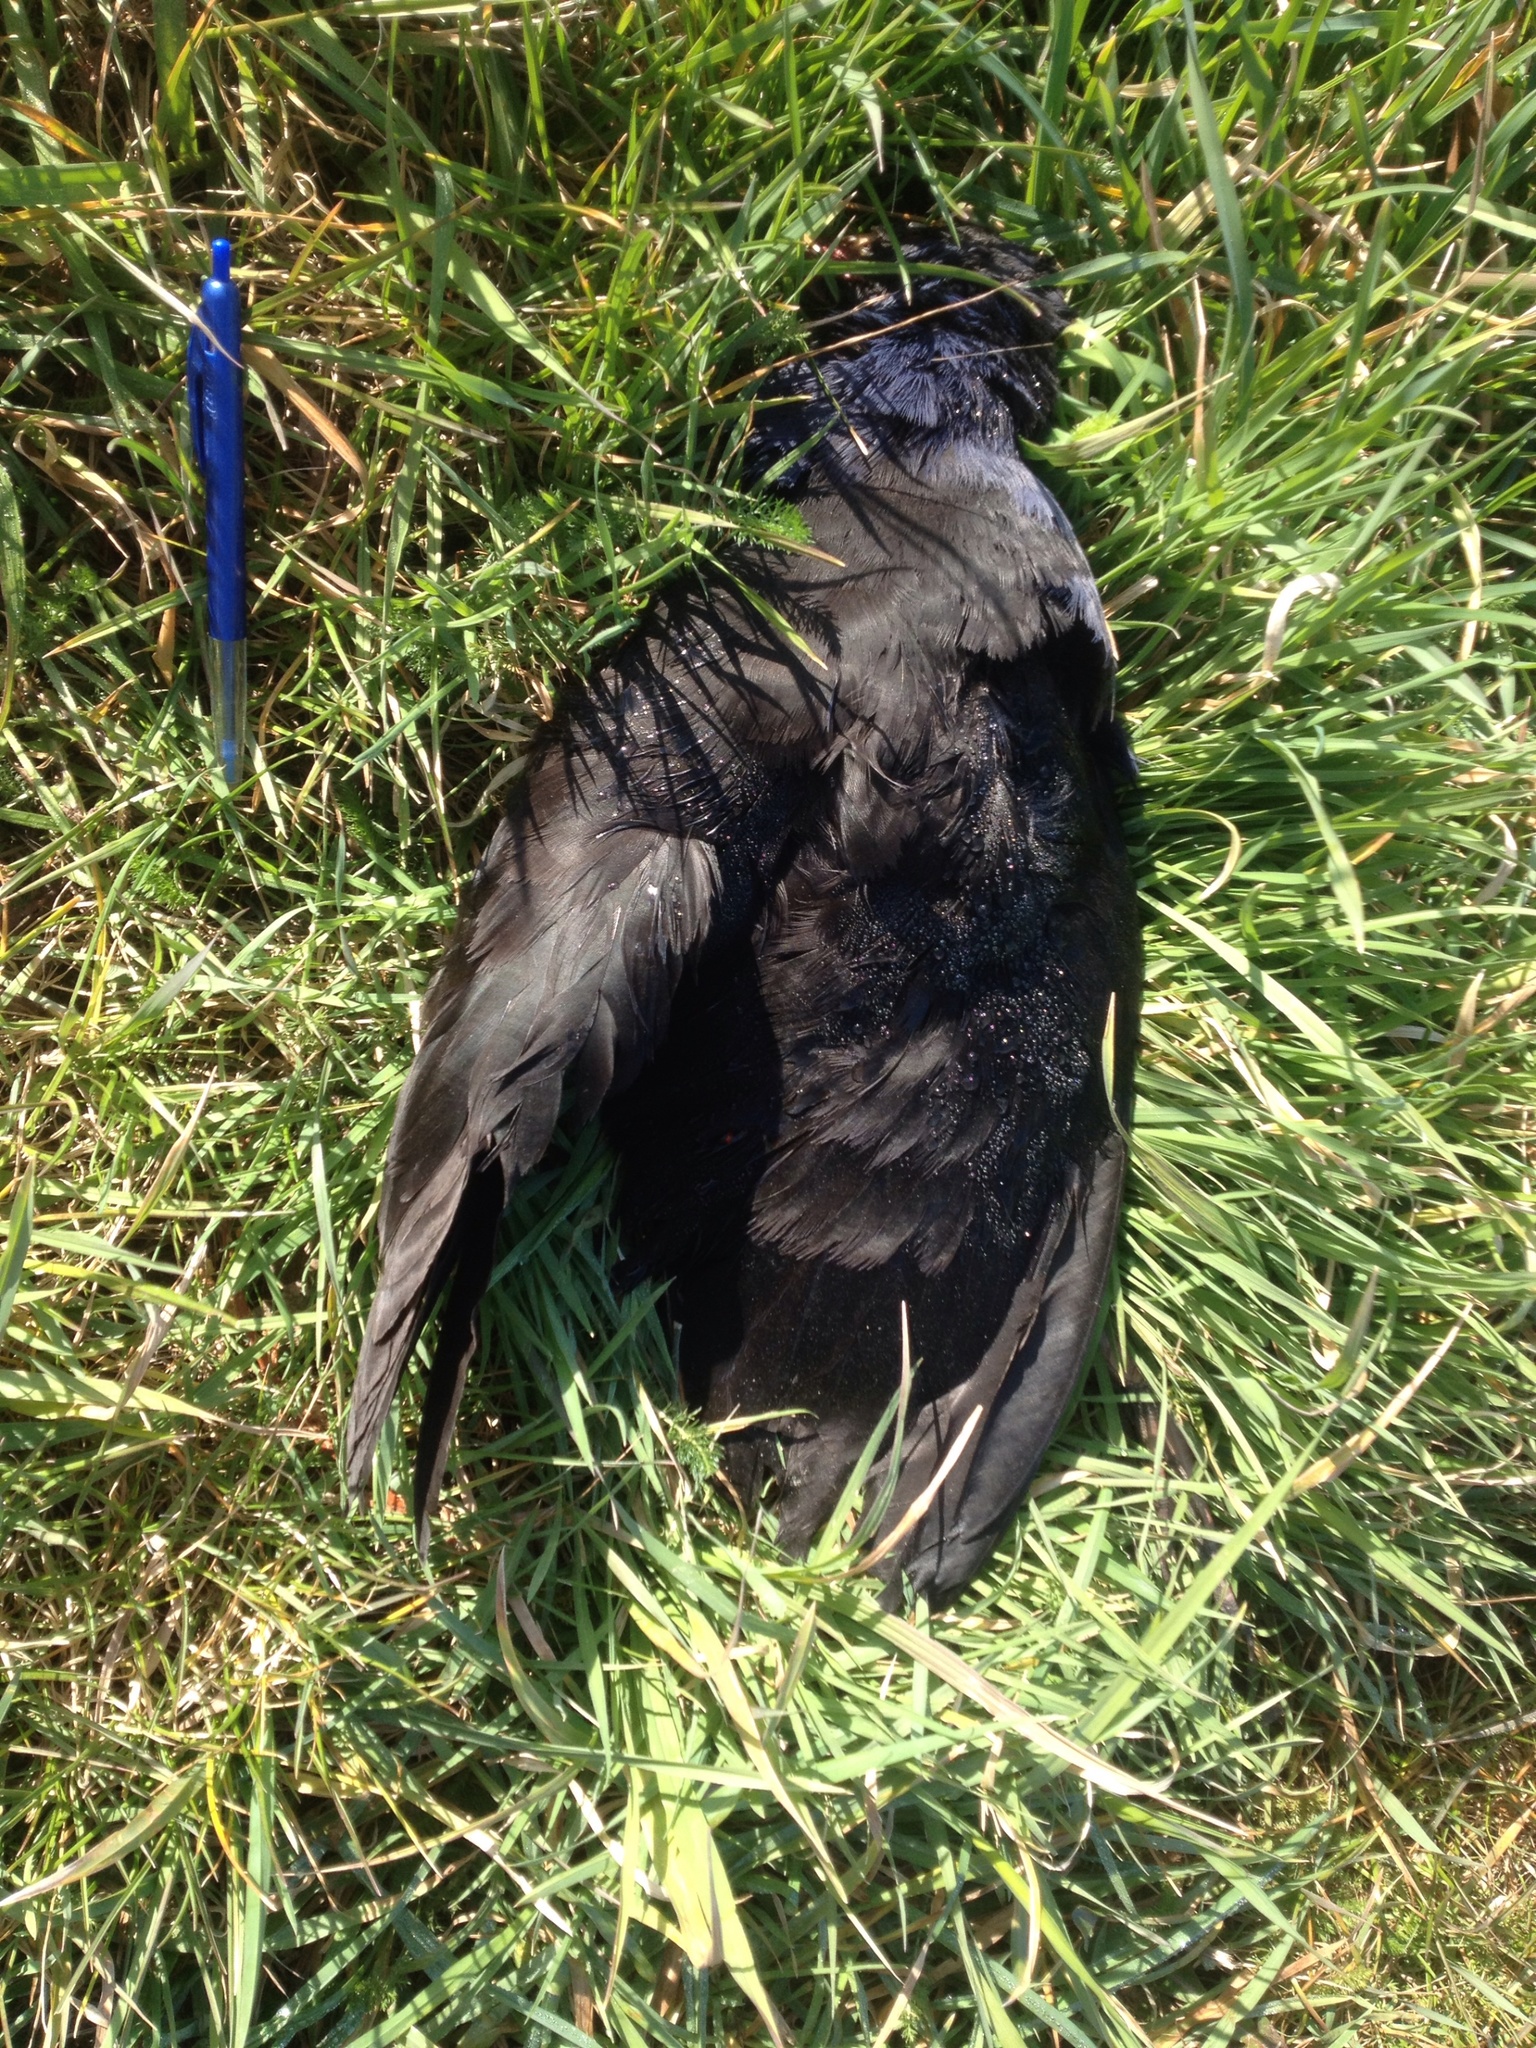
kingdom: Animalia
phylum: Chordata
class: Aves
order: Gruiformes
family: Rallidae
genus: Porphyrio
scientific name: Porphyrio melanotus
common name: Australasian swamphen
